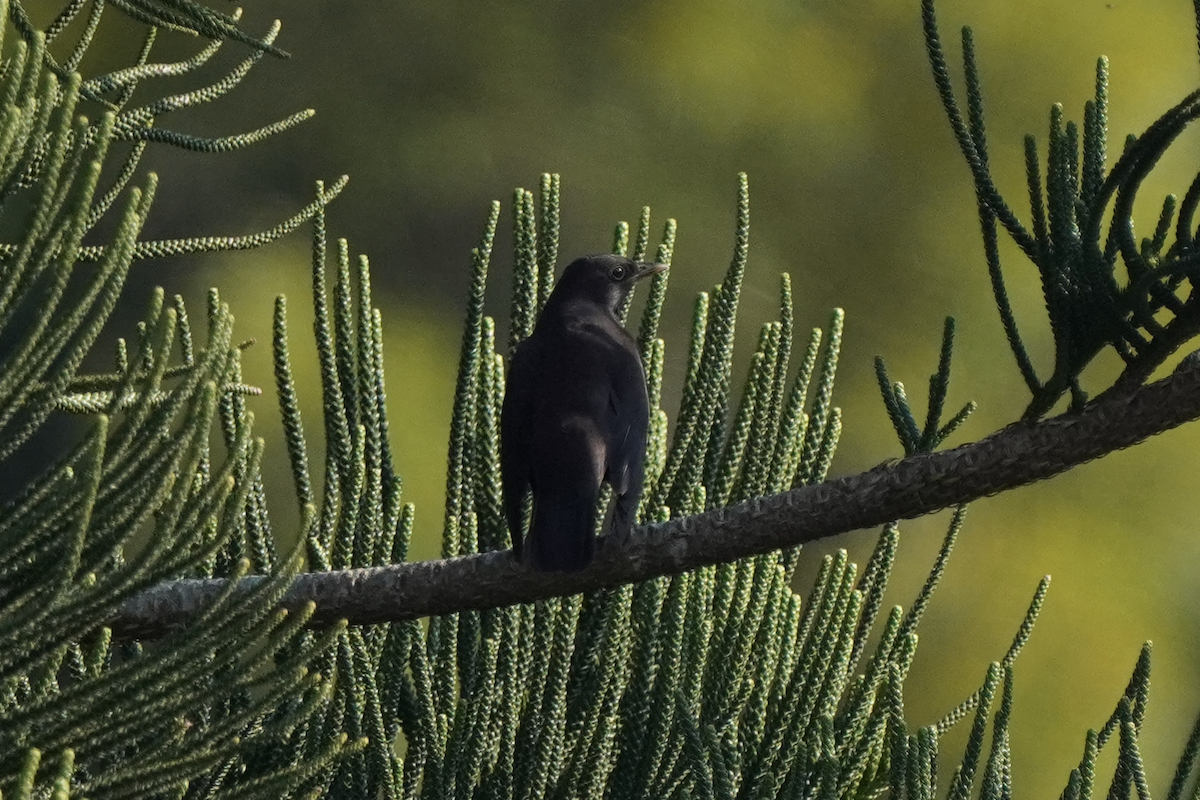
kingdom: Animalia
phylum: Chordata
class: Aves
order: Passeriformes
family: Turdidae
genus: Turdus
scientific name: Turdus mandarinus
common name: Chinese blackbird
